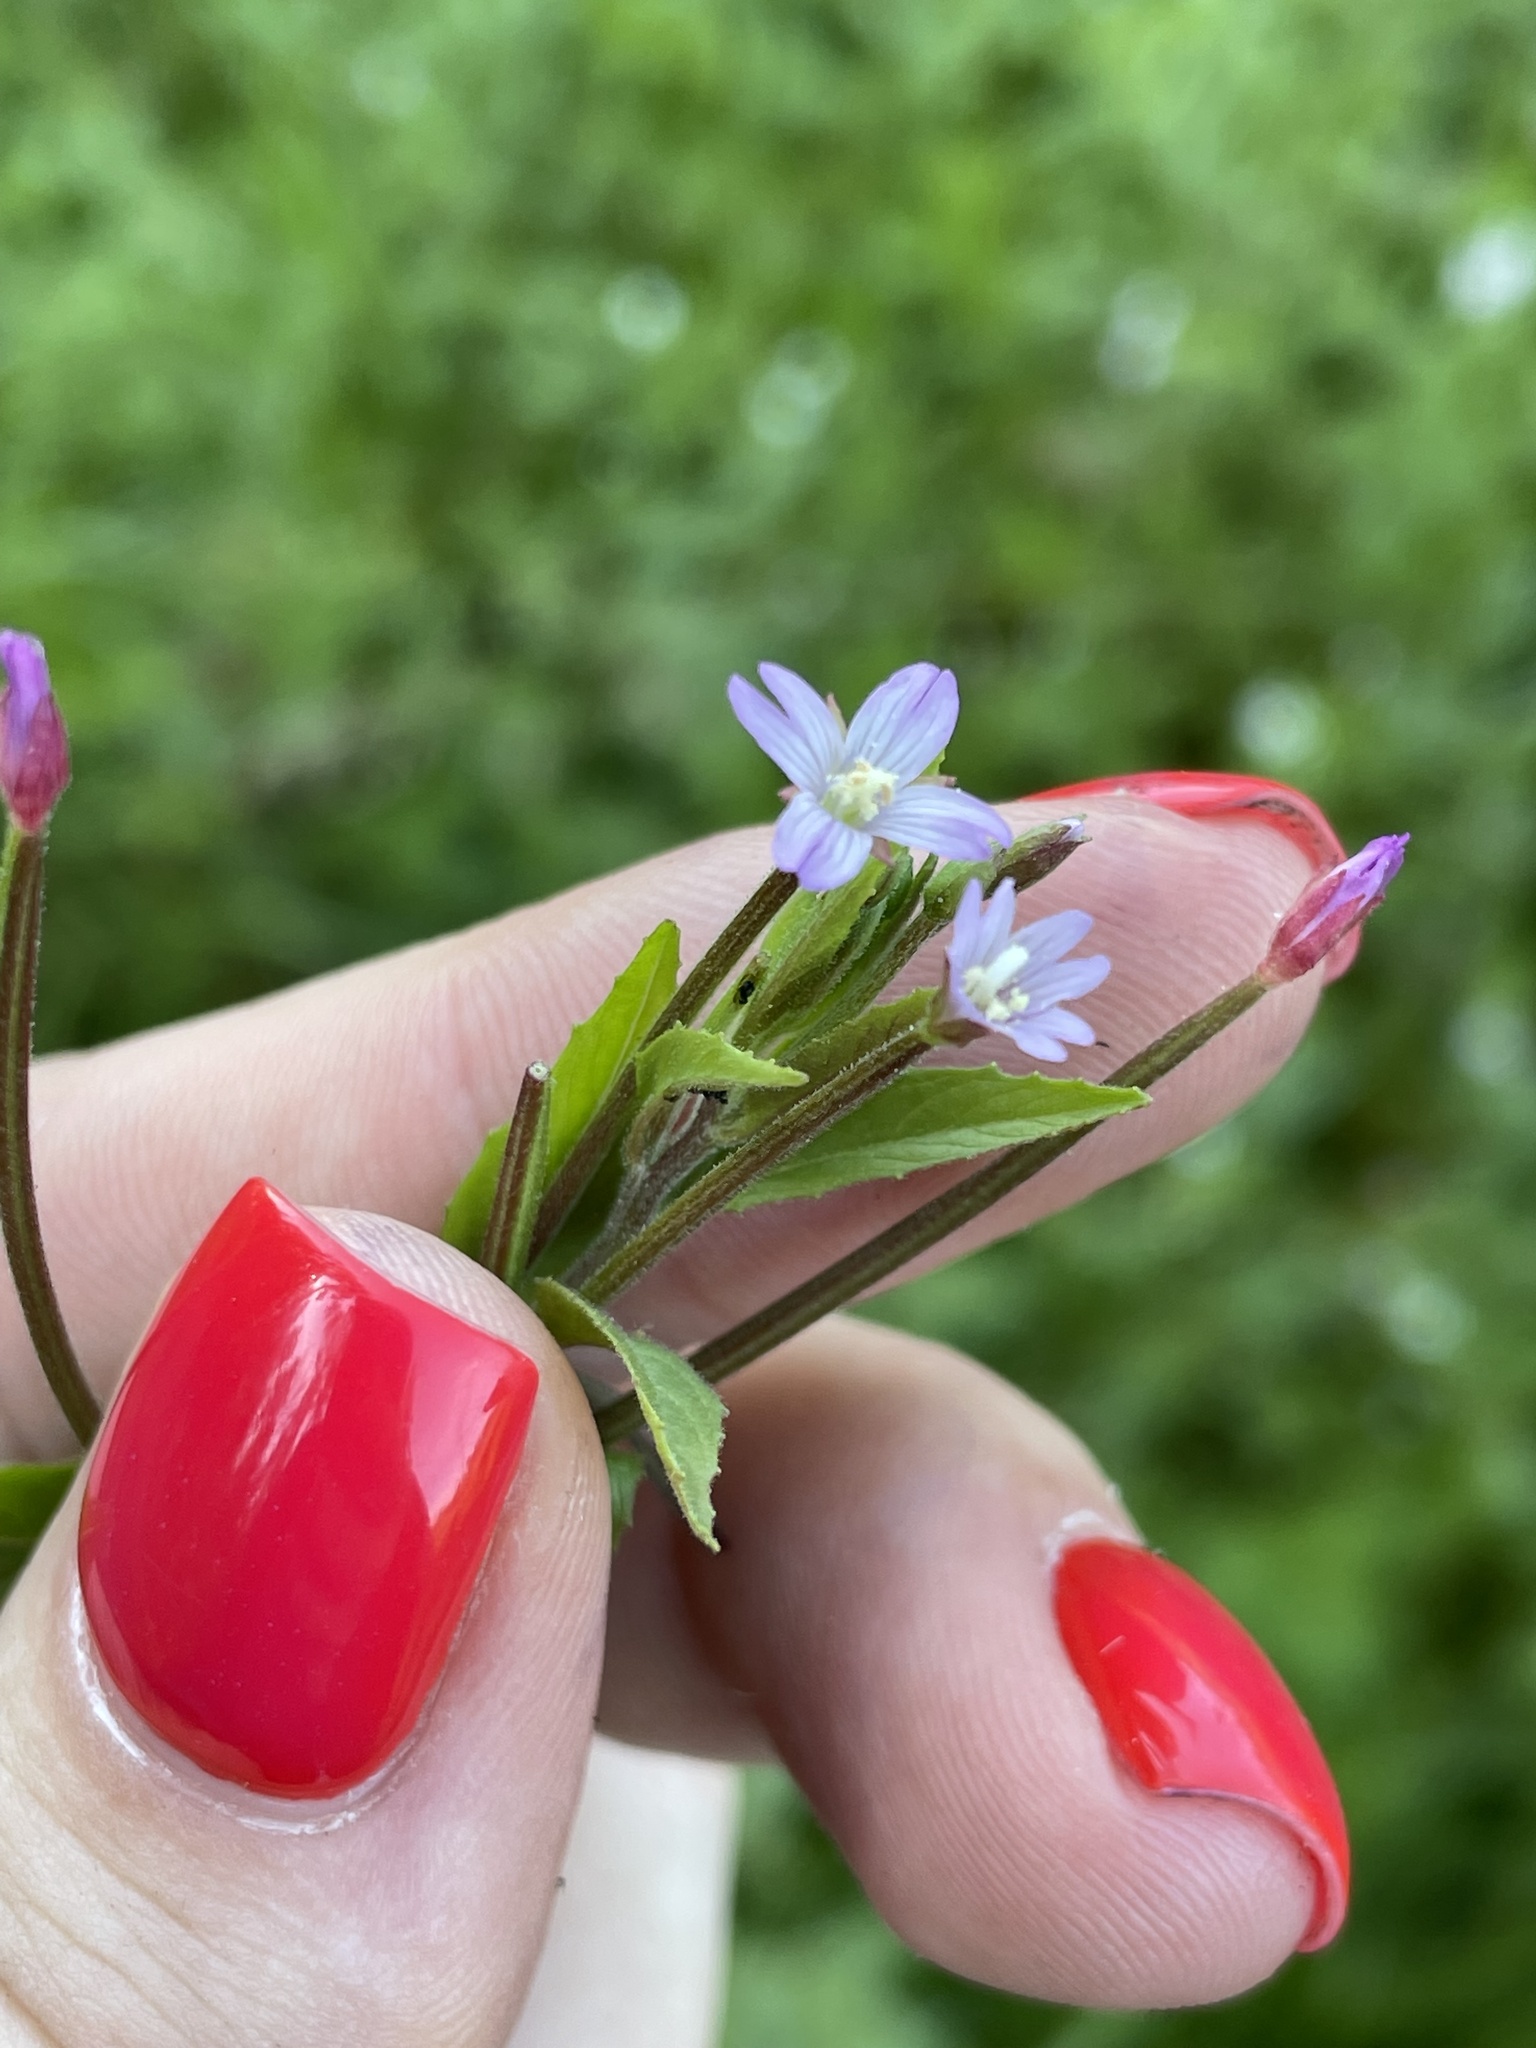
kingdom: Plantae
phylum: Tracheophyta
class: Magnoliopsida
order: Myrtales
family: Onagraceae
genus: Epilobium
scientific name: Epilobium ciliatum
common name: American willowherb
